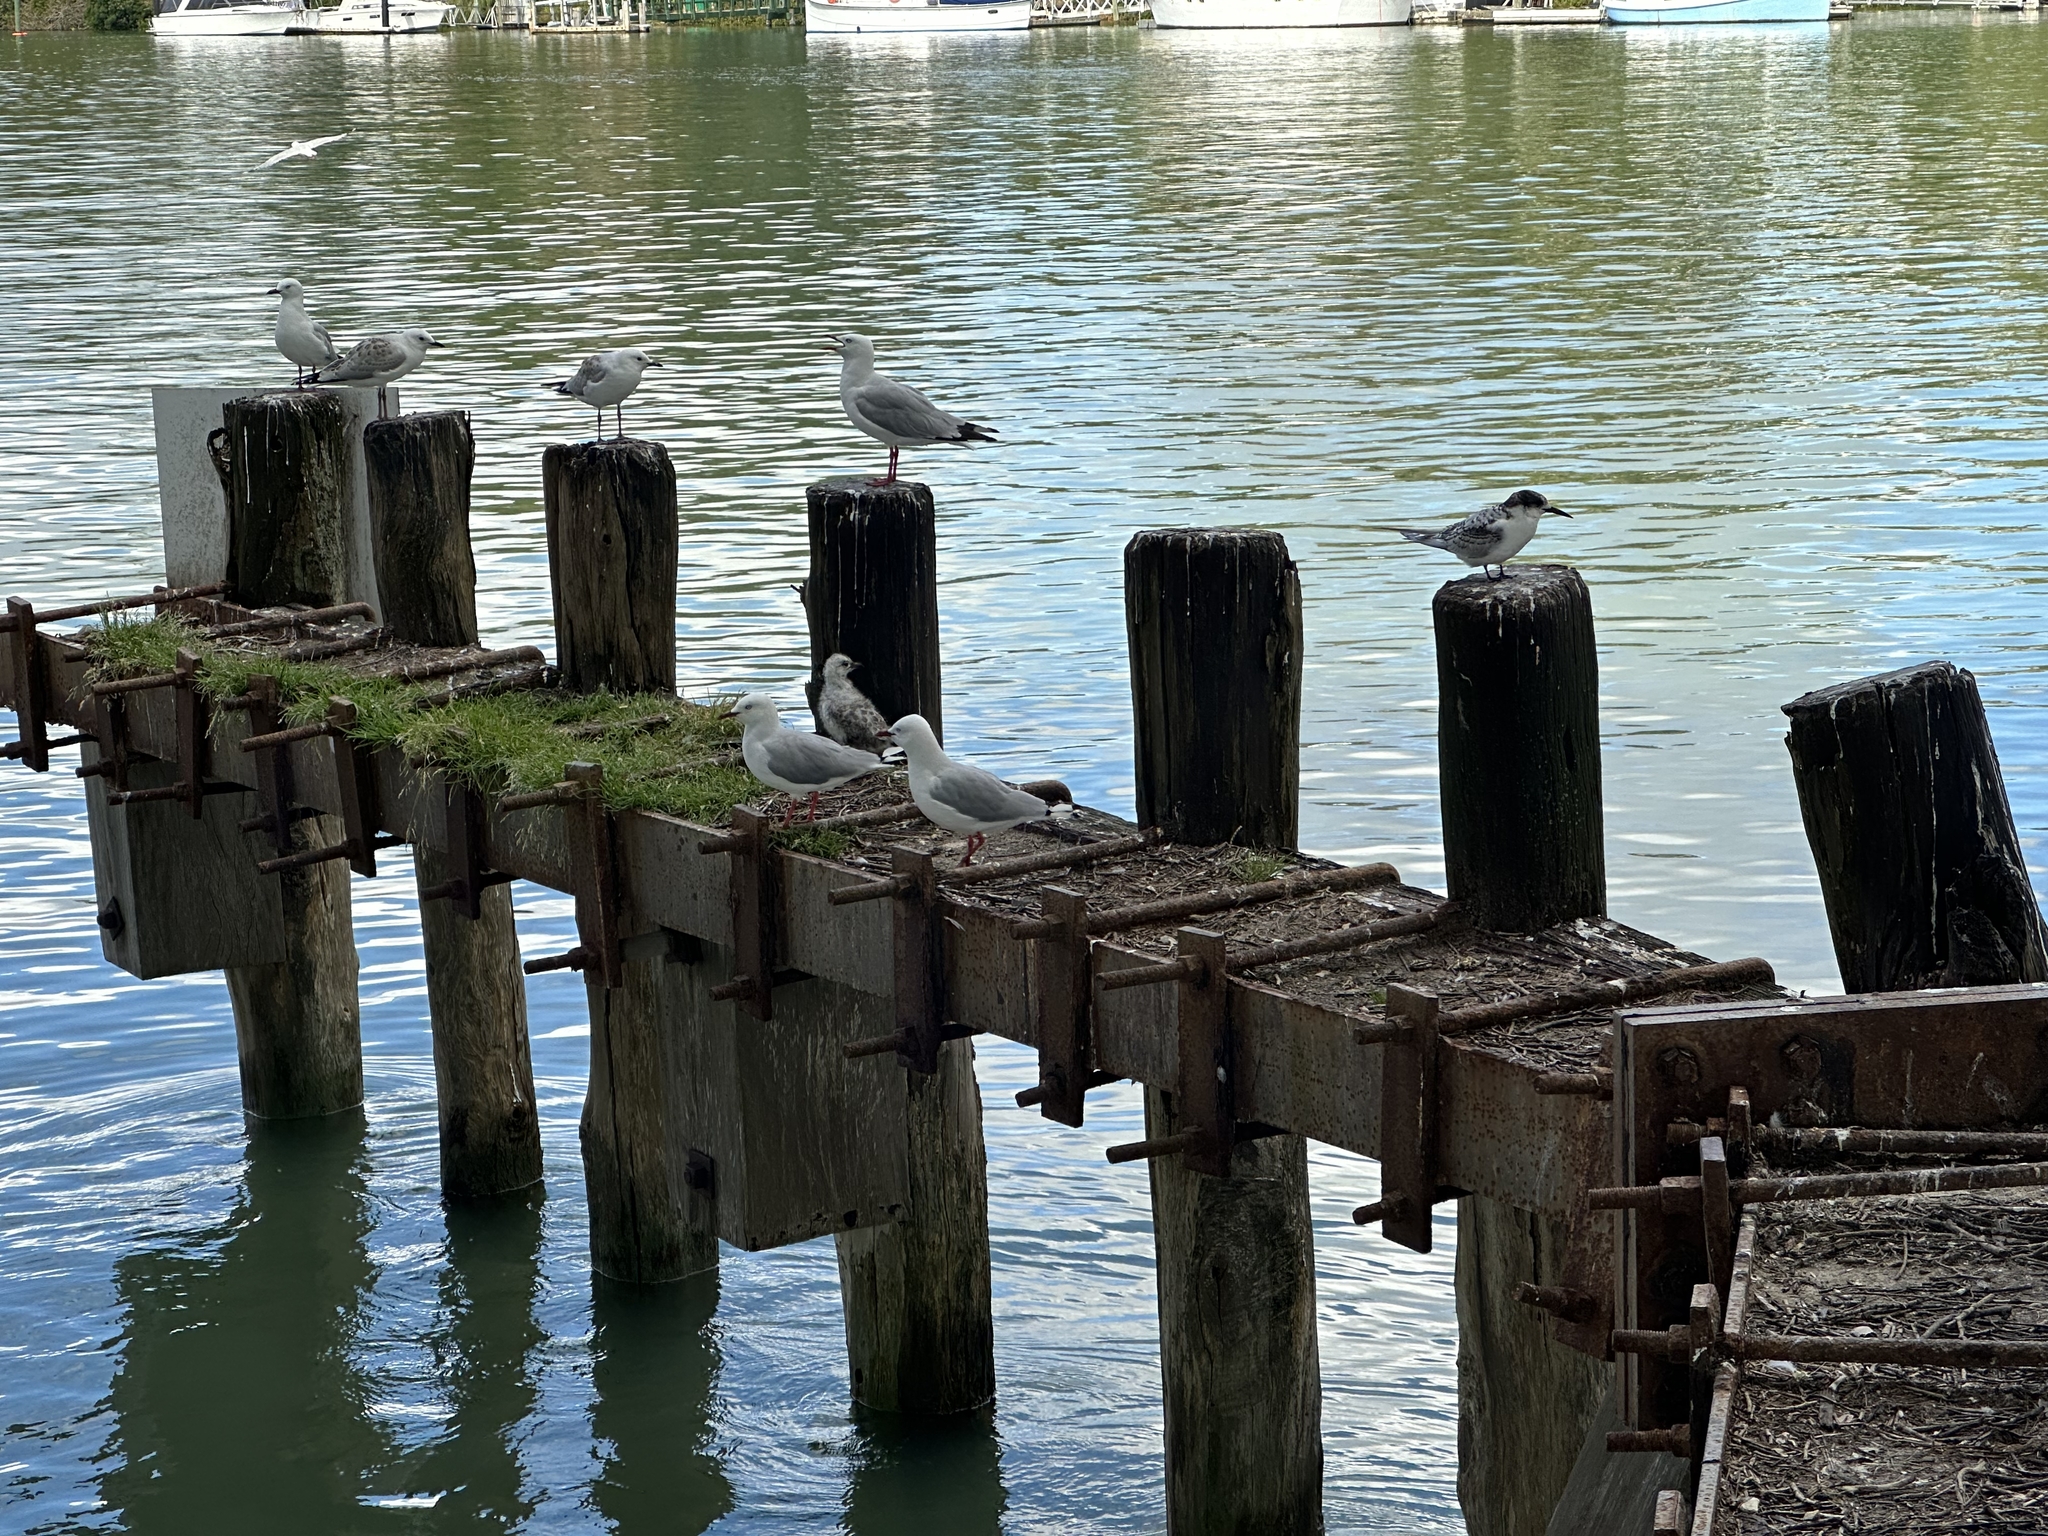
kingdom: Animalia
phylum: Chordata
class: Aves
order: Charadriiformes
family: Laridae
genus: Sterna
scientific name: Sterna striata
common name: White-fronted tern
